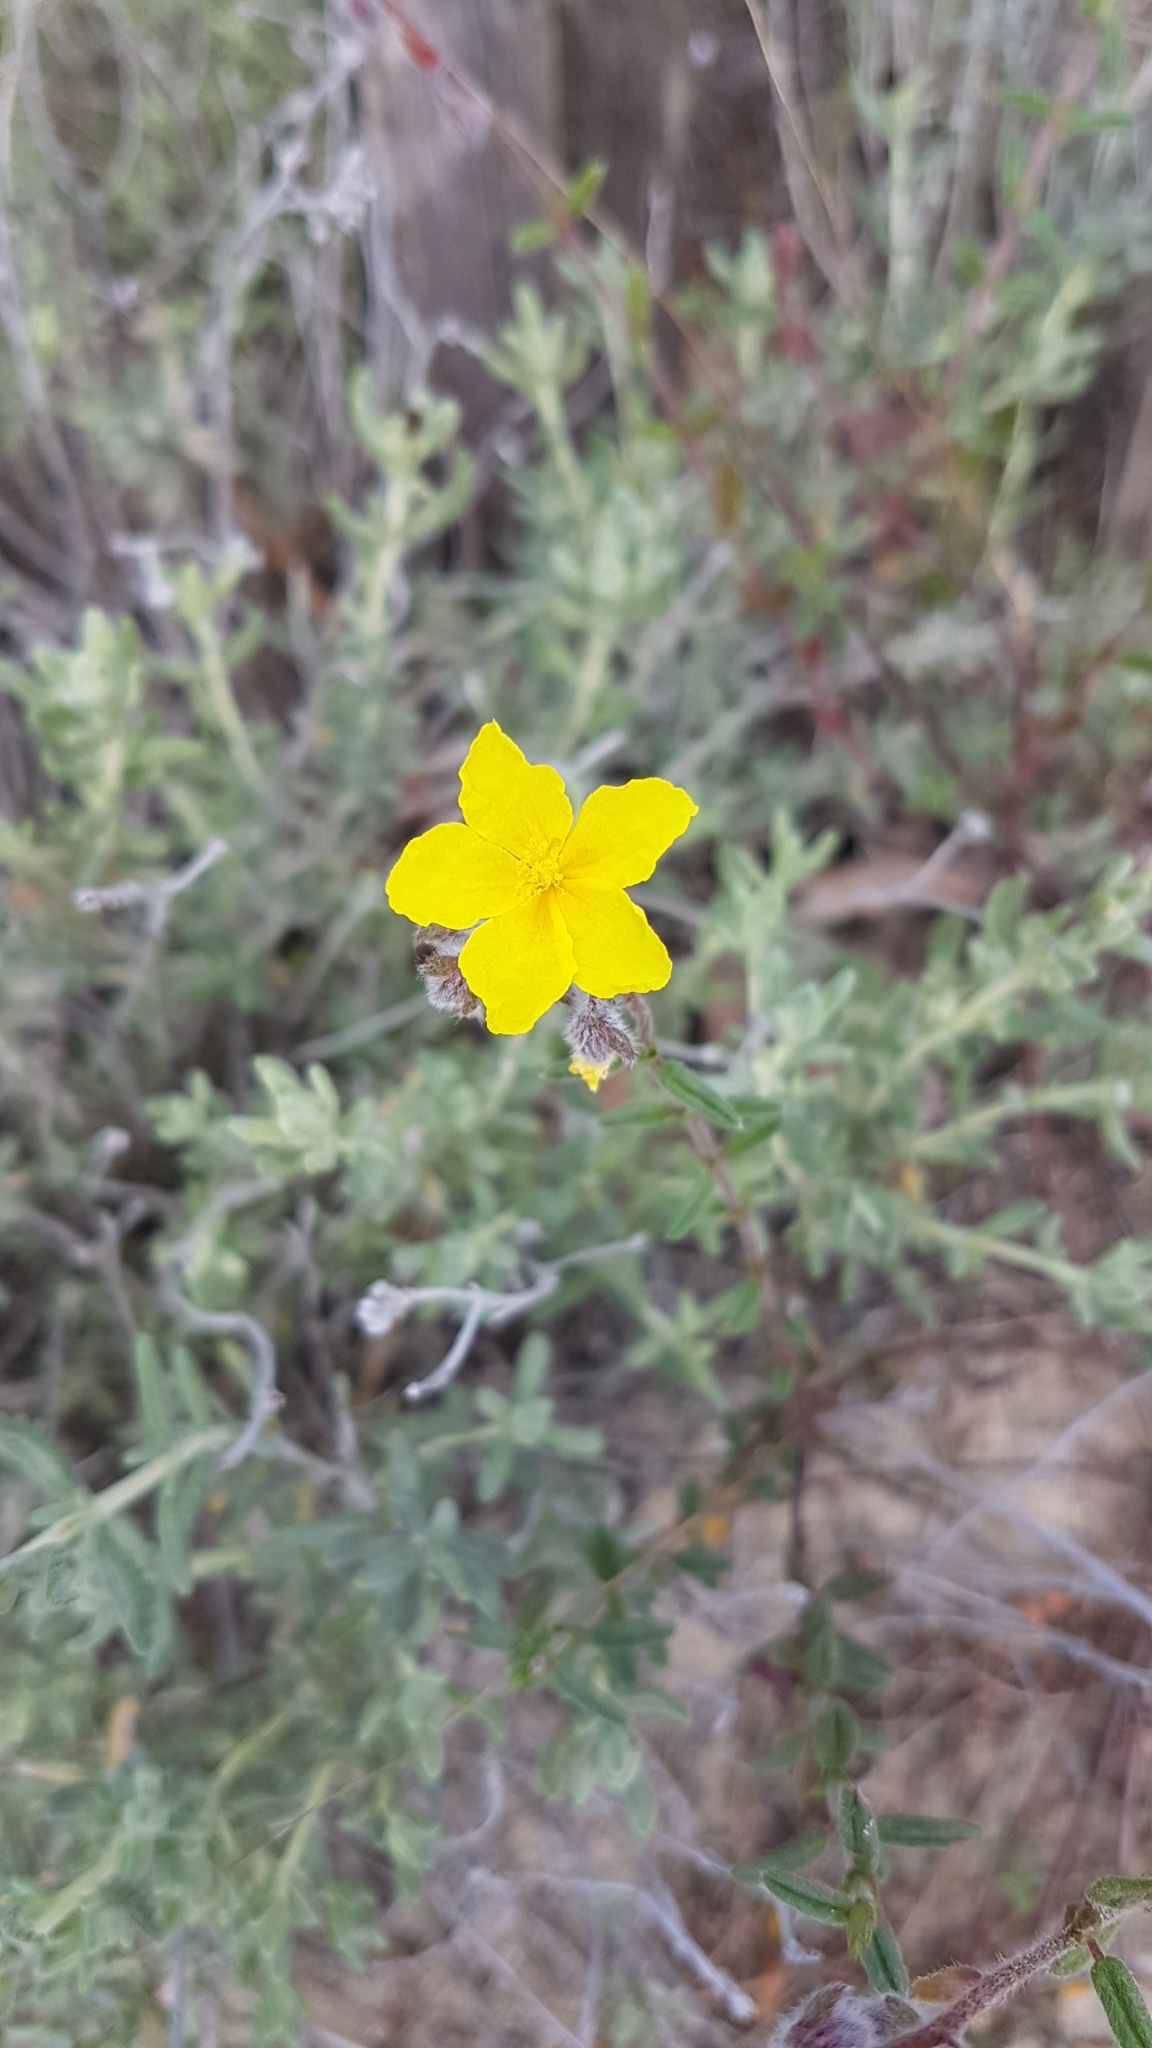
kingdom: Plantae
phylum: Tracheophyta
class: Magnoliopsida
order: Malvales
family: Cistaceae
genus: Helianthemum
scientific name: Helianthemum hirtum
